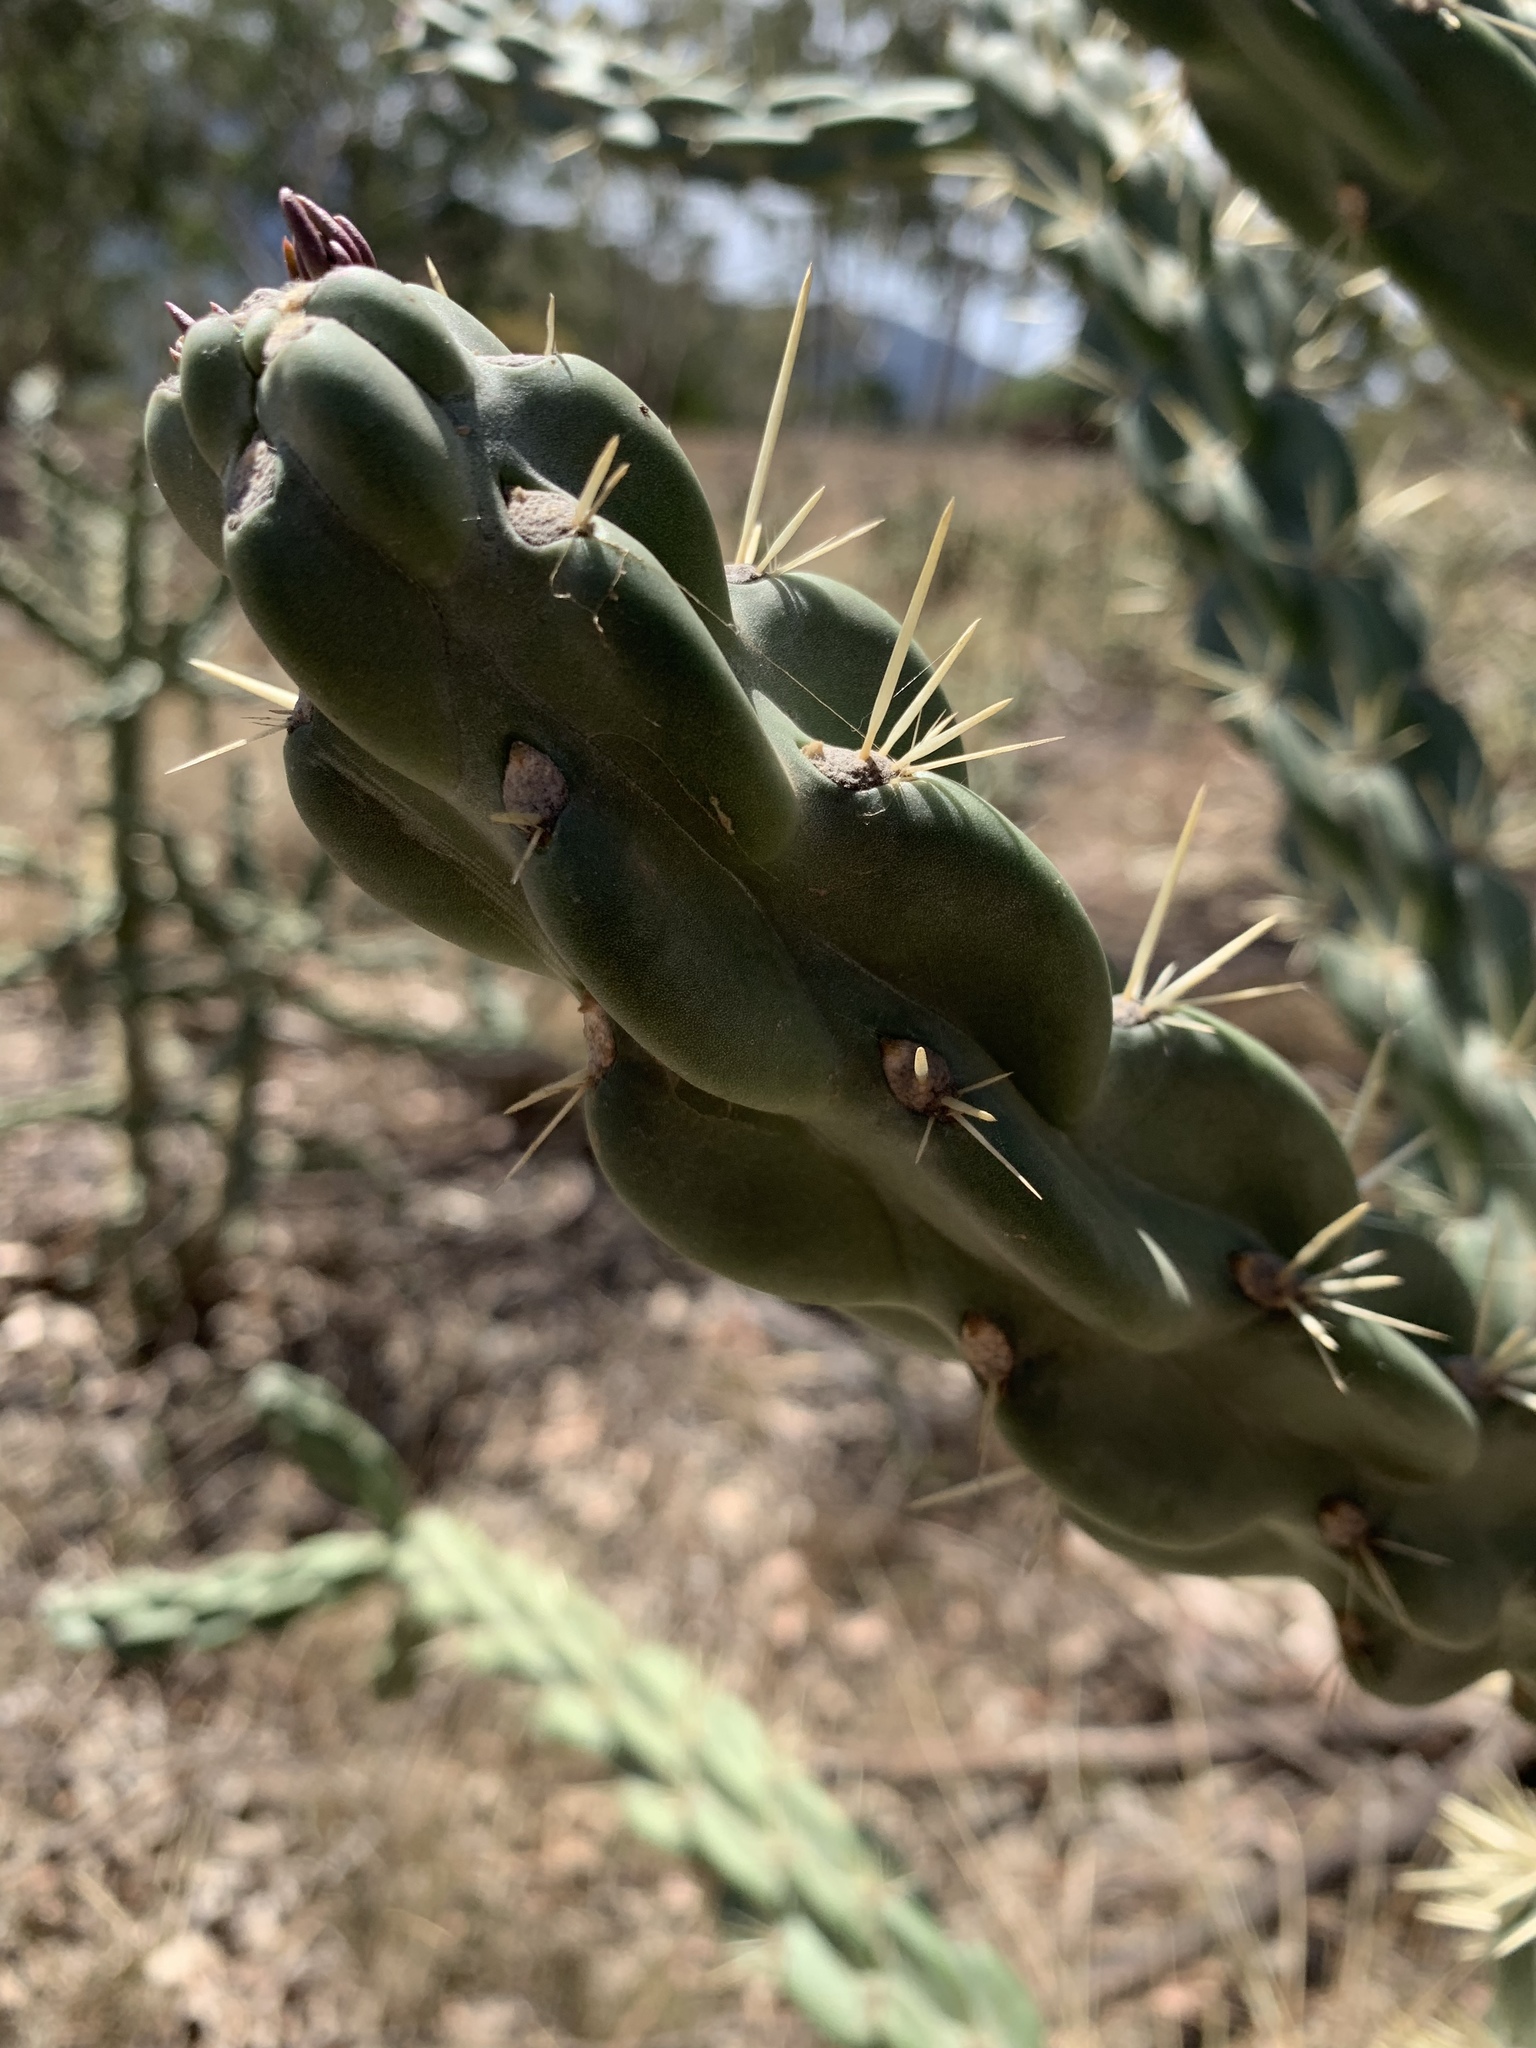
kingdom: Plantae
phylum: Tracheophyta
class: Magnoliopsida
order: Caryophyllales
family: Cactaceae
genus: Cylindropuntia
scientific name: Cylindropuntia imbricata
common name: Candelabrum cactus
